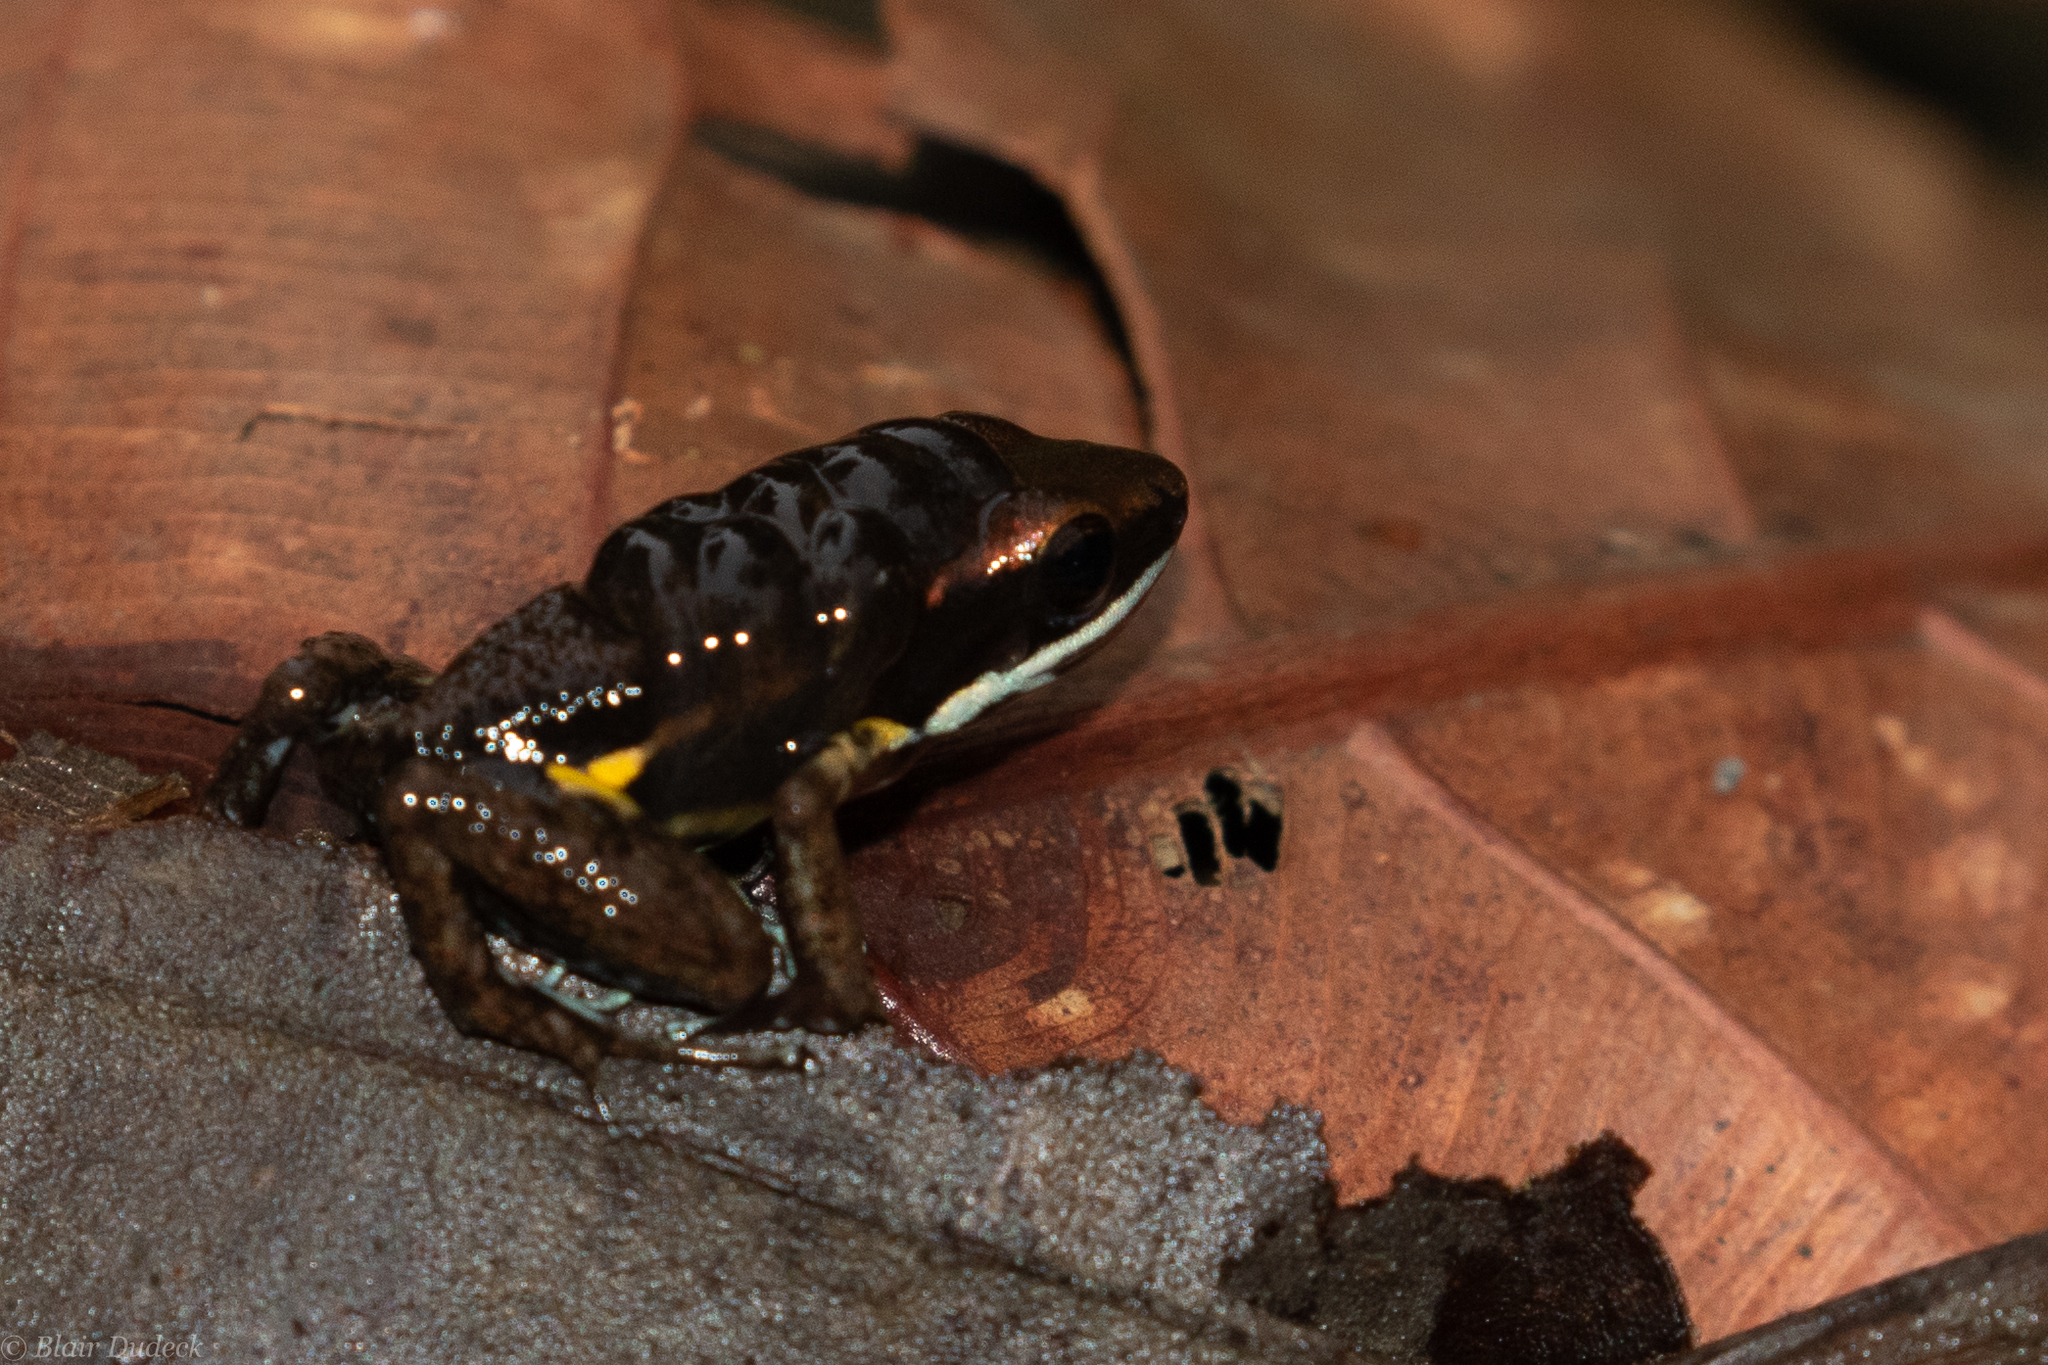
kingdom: Animalia
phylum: Chordata
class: Amphibia
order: Anura
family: Dendrobatidae
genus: Epipedobates
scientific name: Epipedobates boulengeri
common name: Marbled poison-arrow frog
